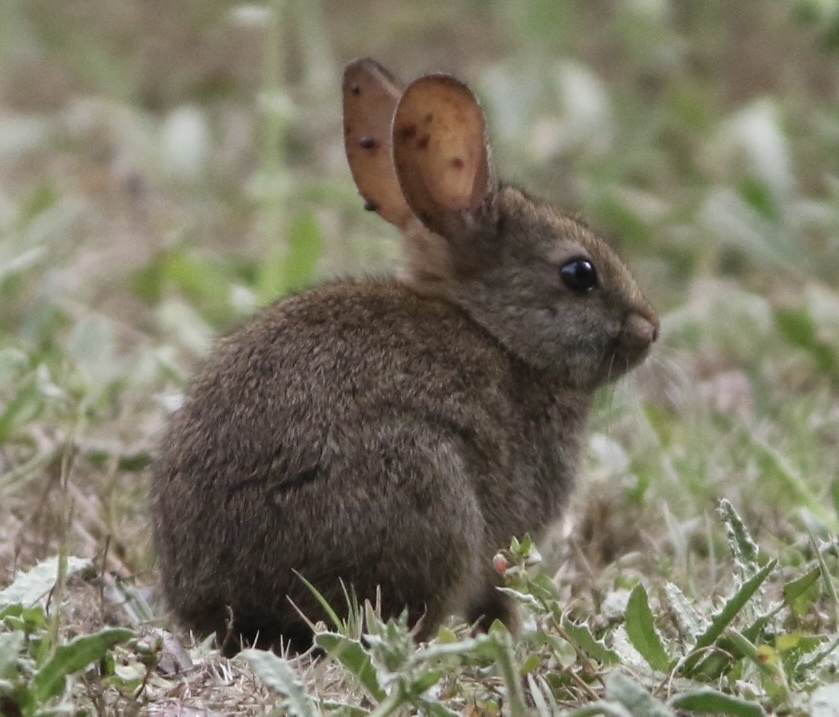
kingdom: Animalia
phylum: Chordata
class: Mammalia
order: Lagomorpha
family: Leporidae
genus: Sylvilagus
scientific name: Sylvilagus bachmani
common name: Brush rabbit
